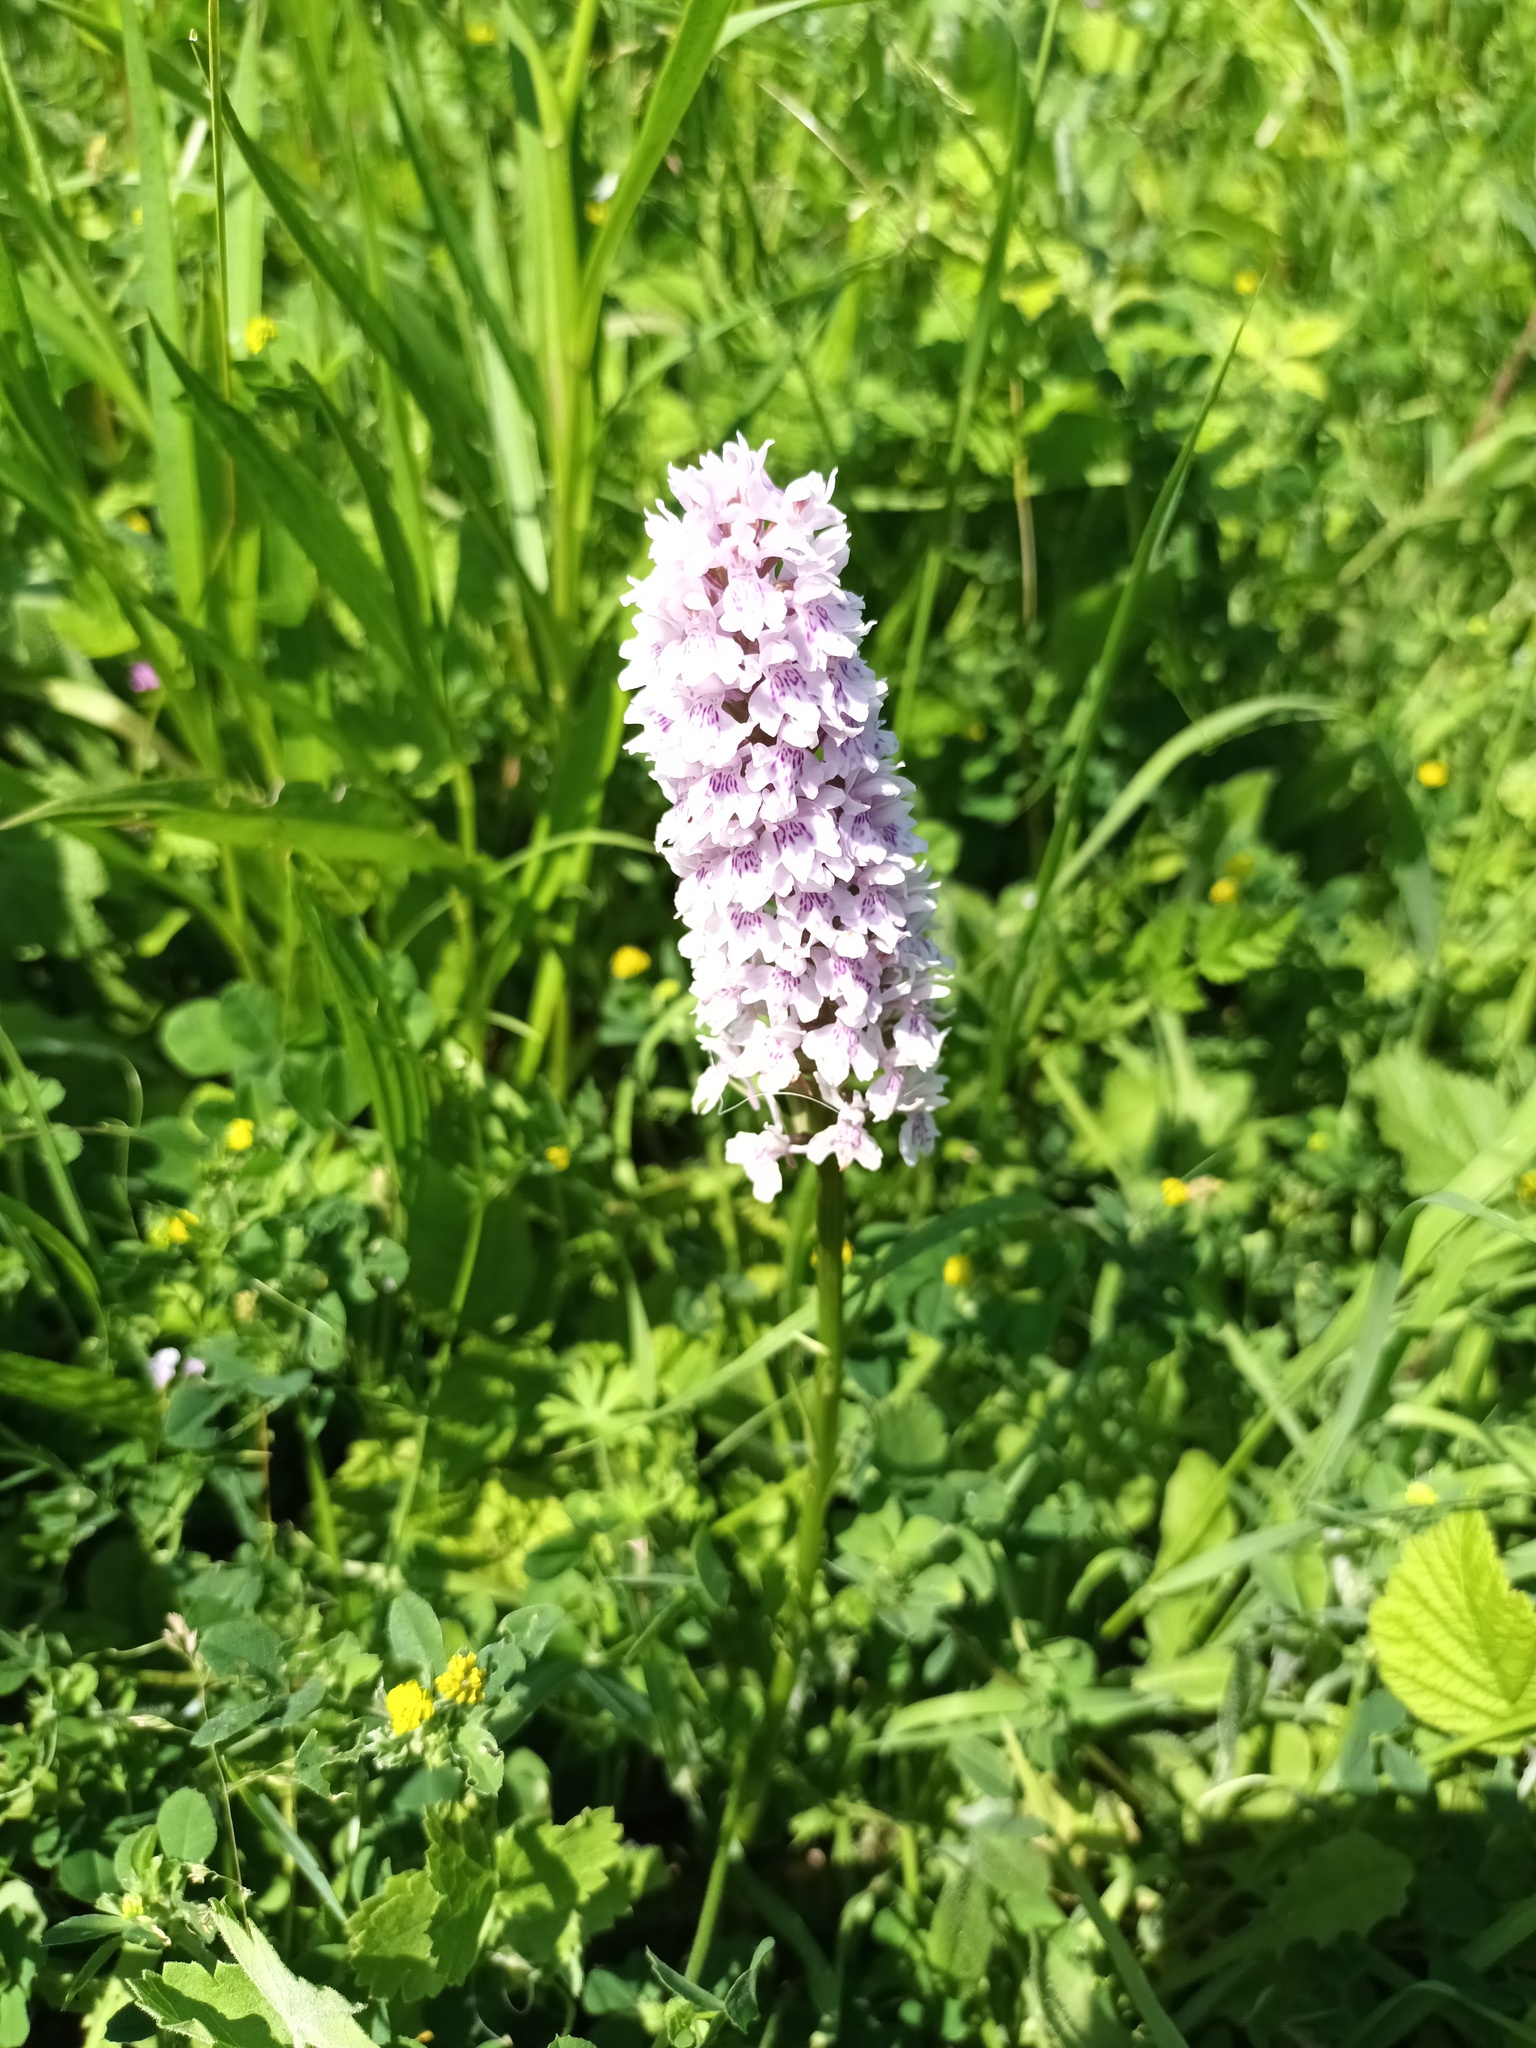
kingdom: Plantae
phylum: Tracheophyta
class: Liliopsida
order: Asparagales
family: Orchidaceae
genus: Dactylorhiza
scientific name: Dactylorhiza maculata
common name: Heath spotted-orchid
